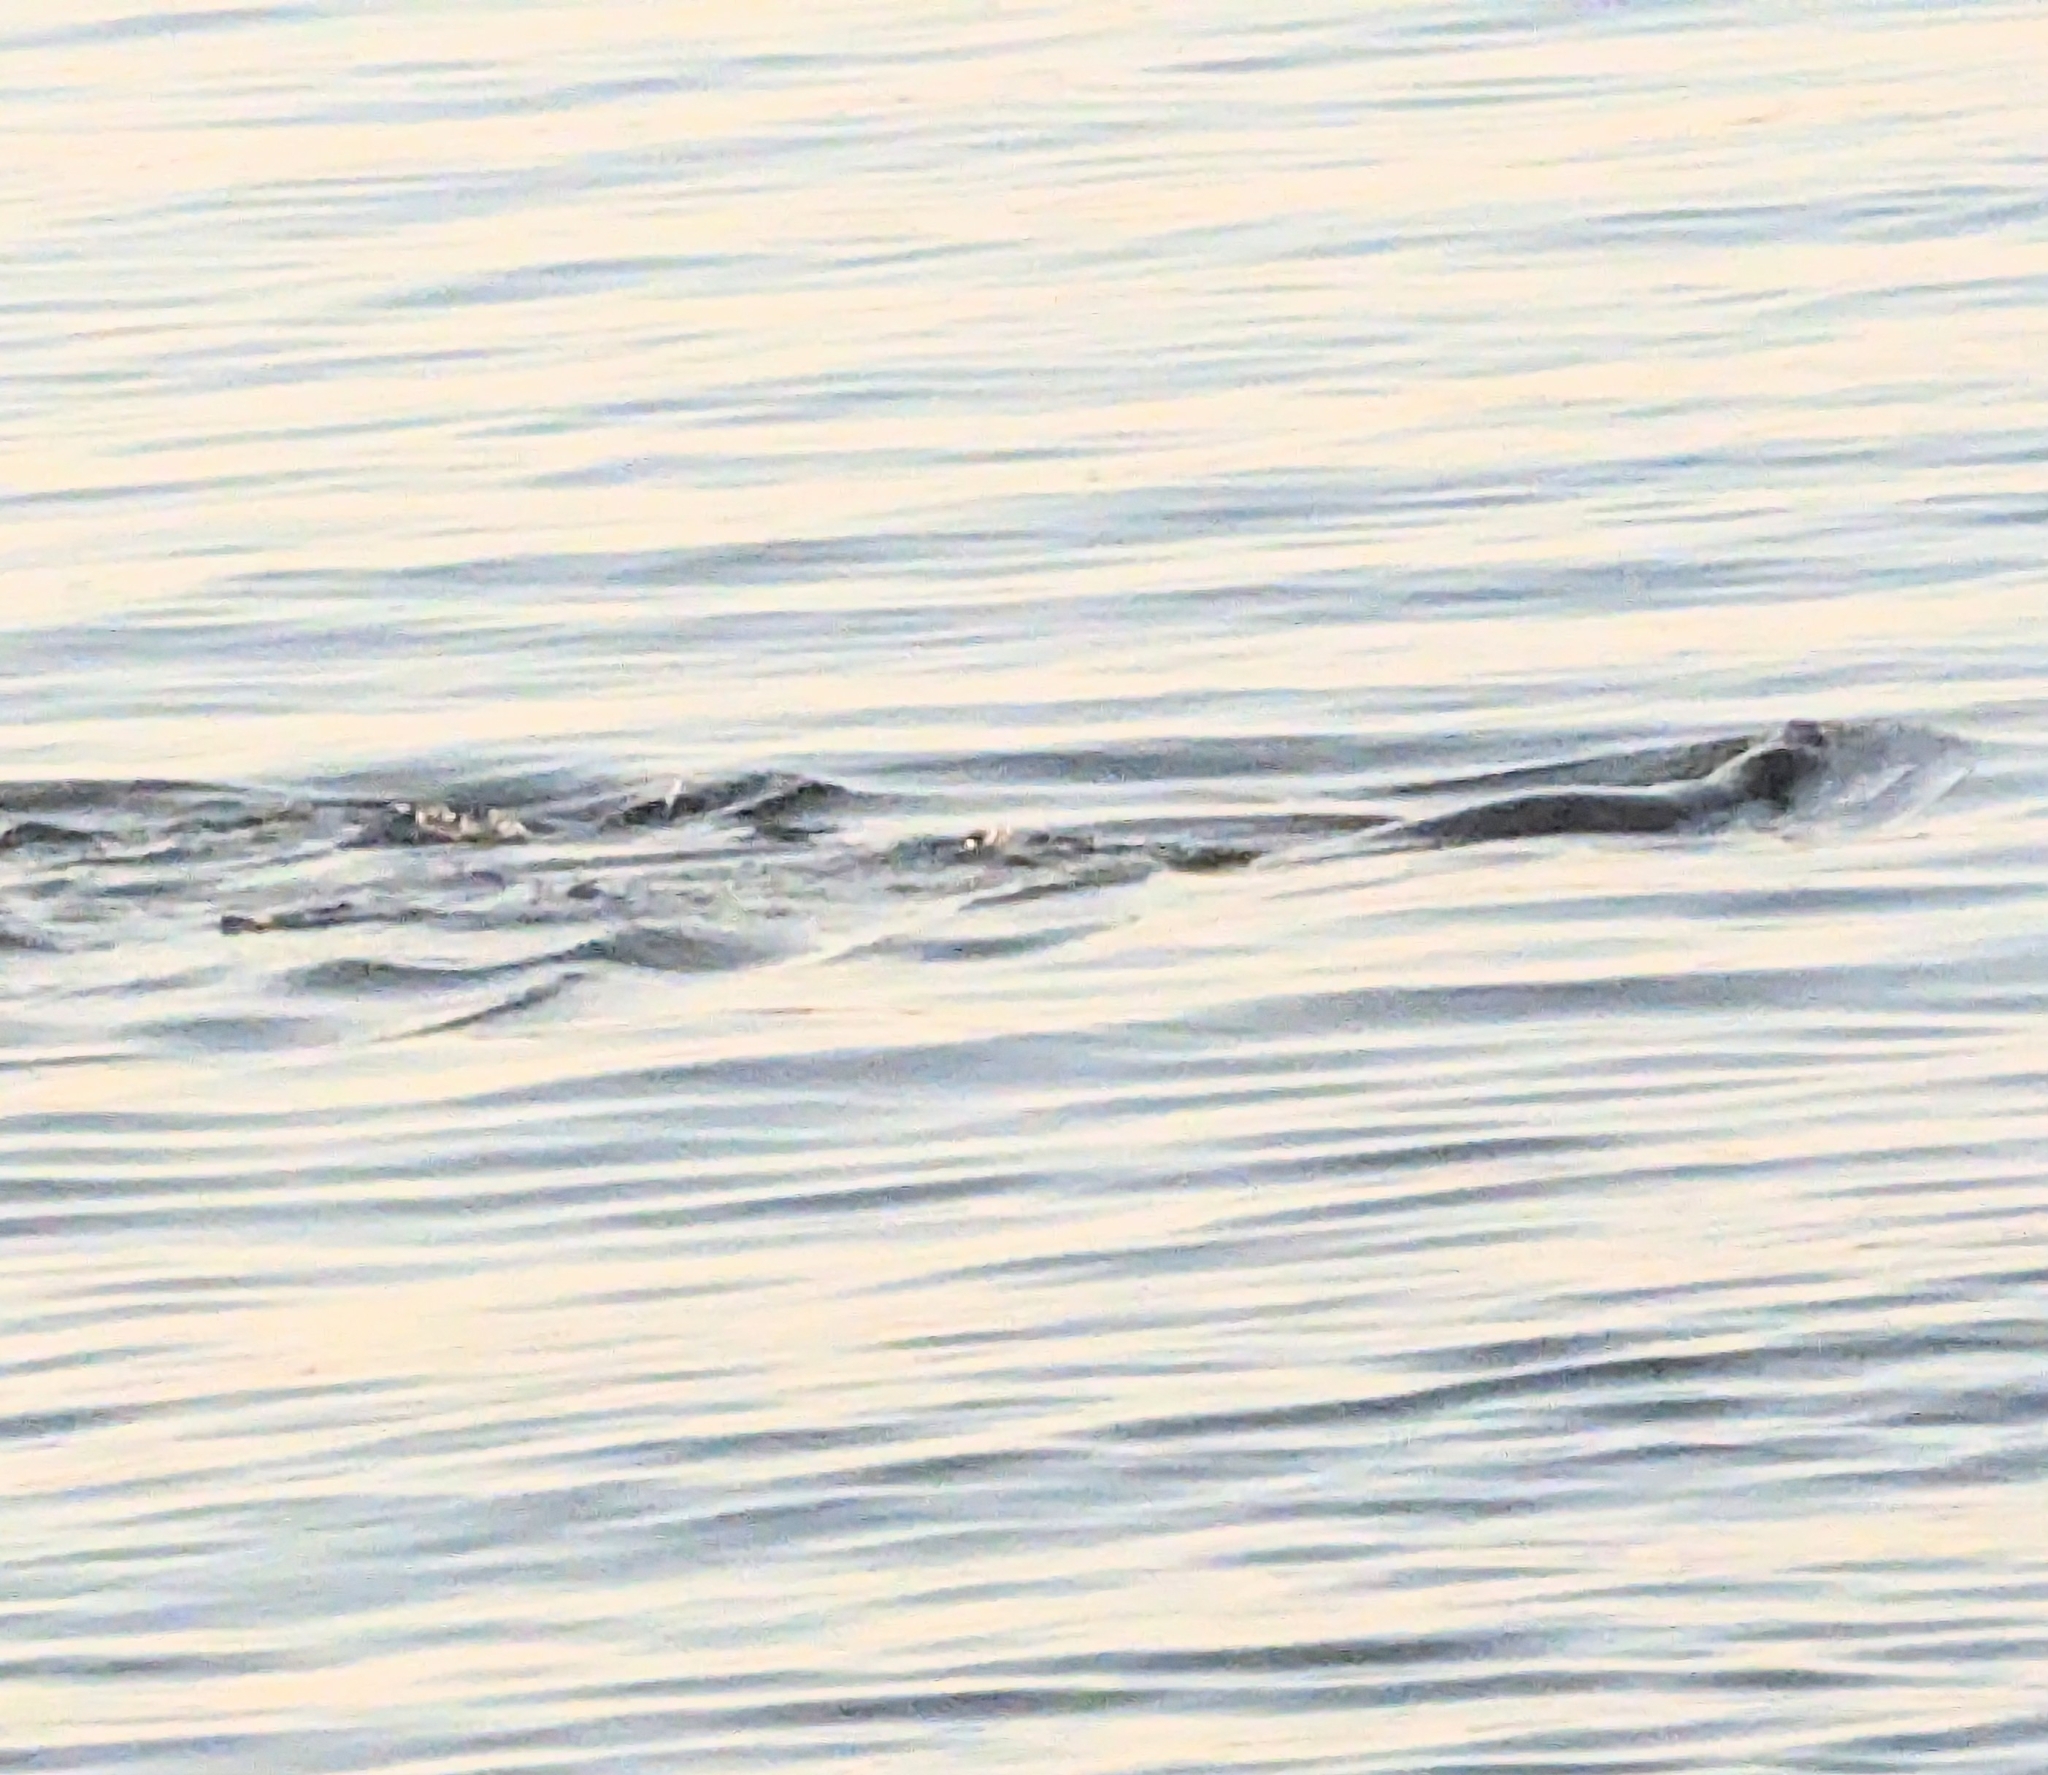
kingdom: Animalia
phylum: Chordata
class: Mammalia
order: Carnivora
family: Phocidae
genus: Phoca
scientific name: Phoca vitulina
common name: Harbor seal
